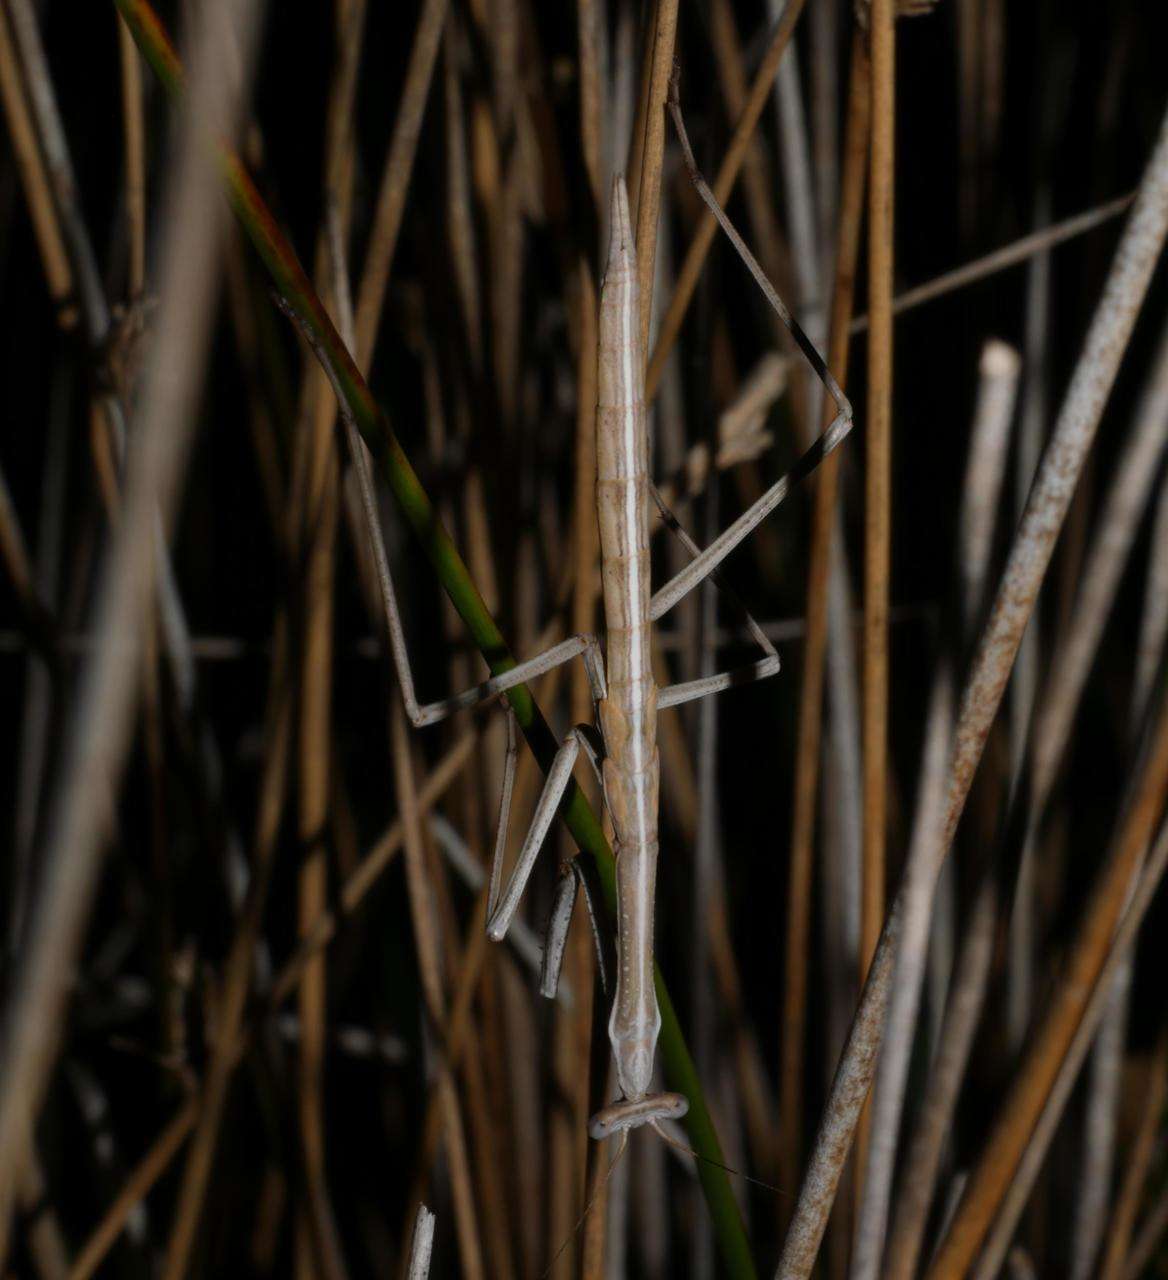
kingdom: Animalia
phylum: Arthropoda
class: Insecta
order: Mantodea
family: Mantidae
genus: Archimantis
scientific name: Archimantis sobrina
